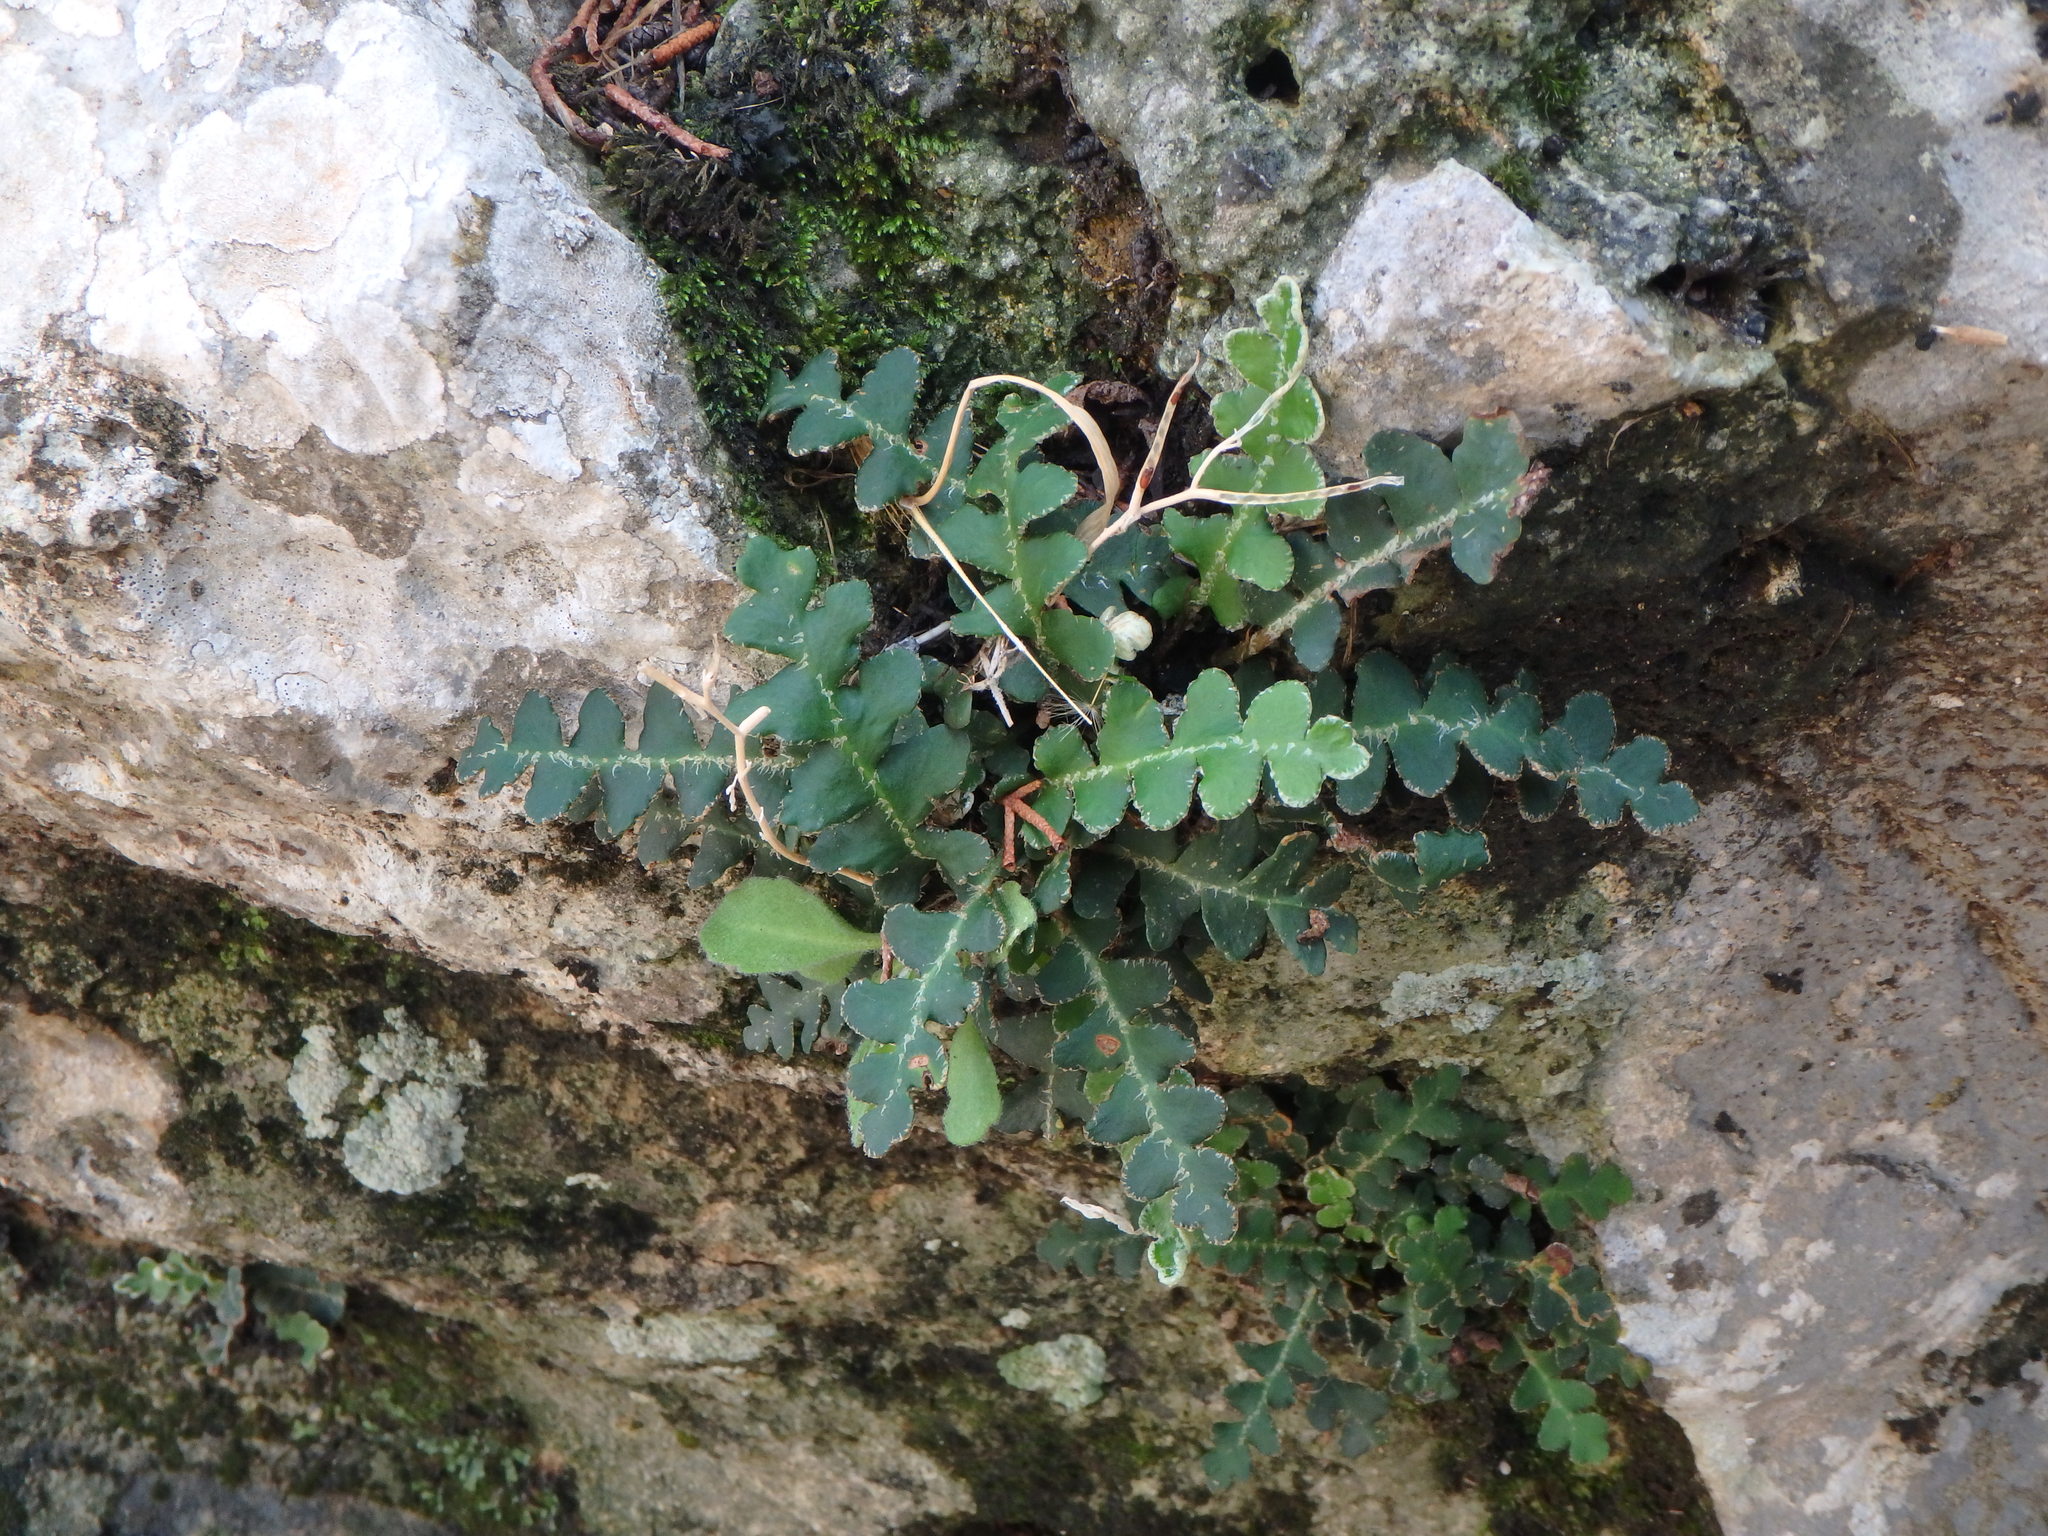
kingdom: Plantae
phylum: Tracheophyta
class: Polypodiopsida
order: Polypodiales
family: Aspleniaceae
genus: Asplenium
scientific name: Asplenium ceterach
